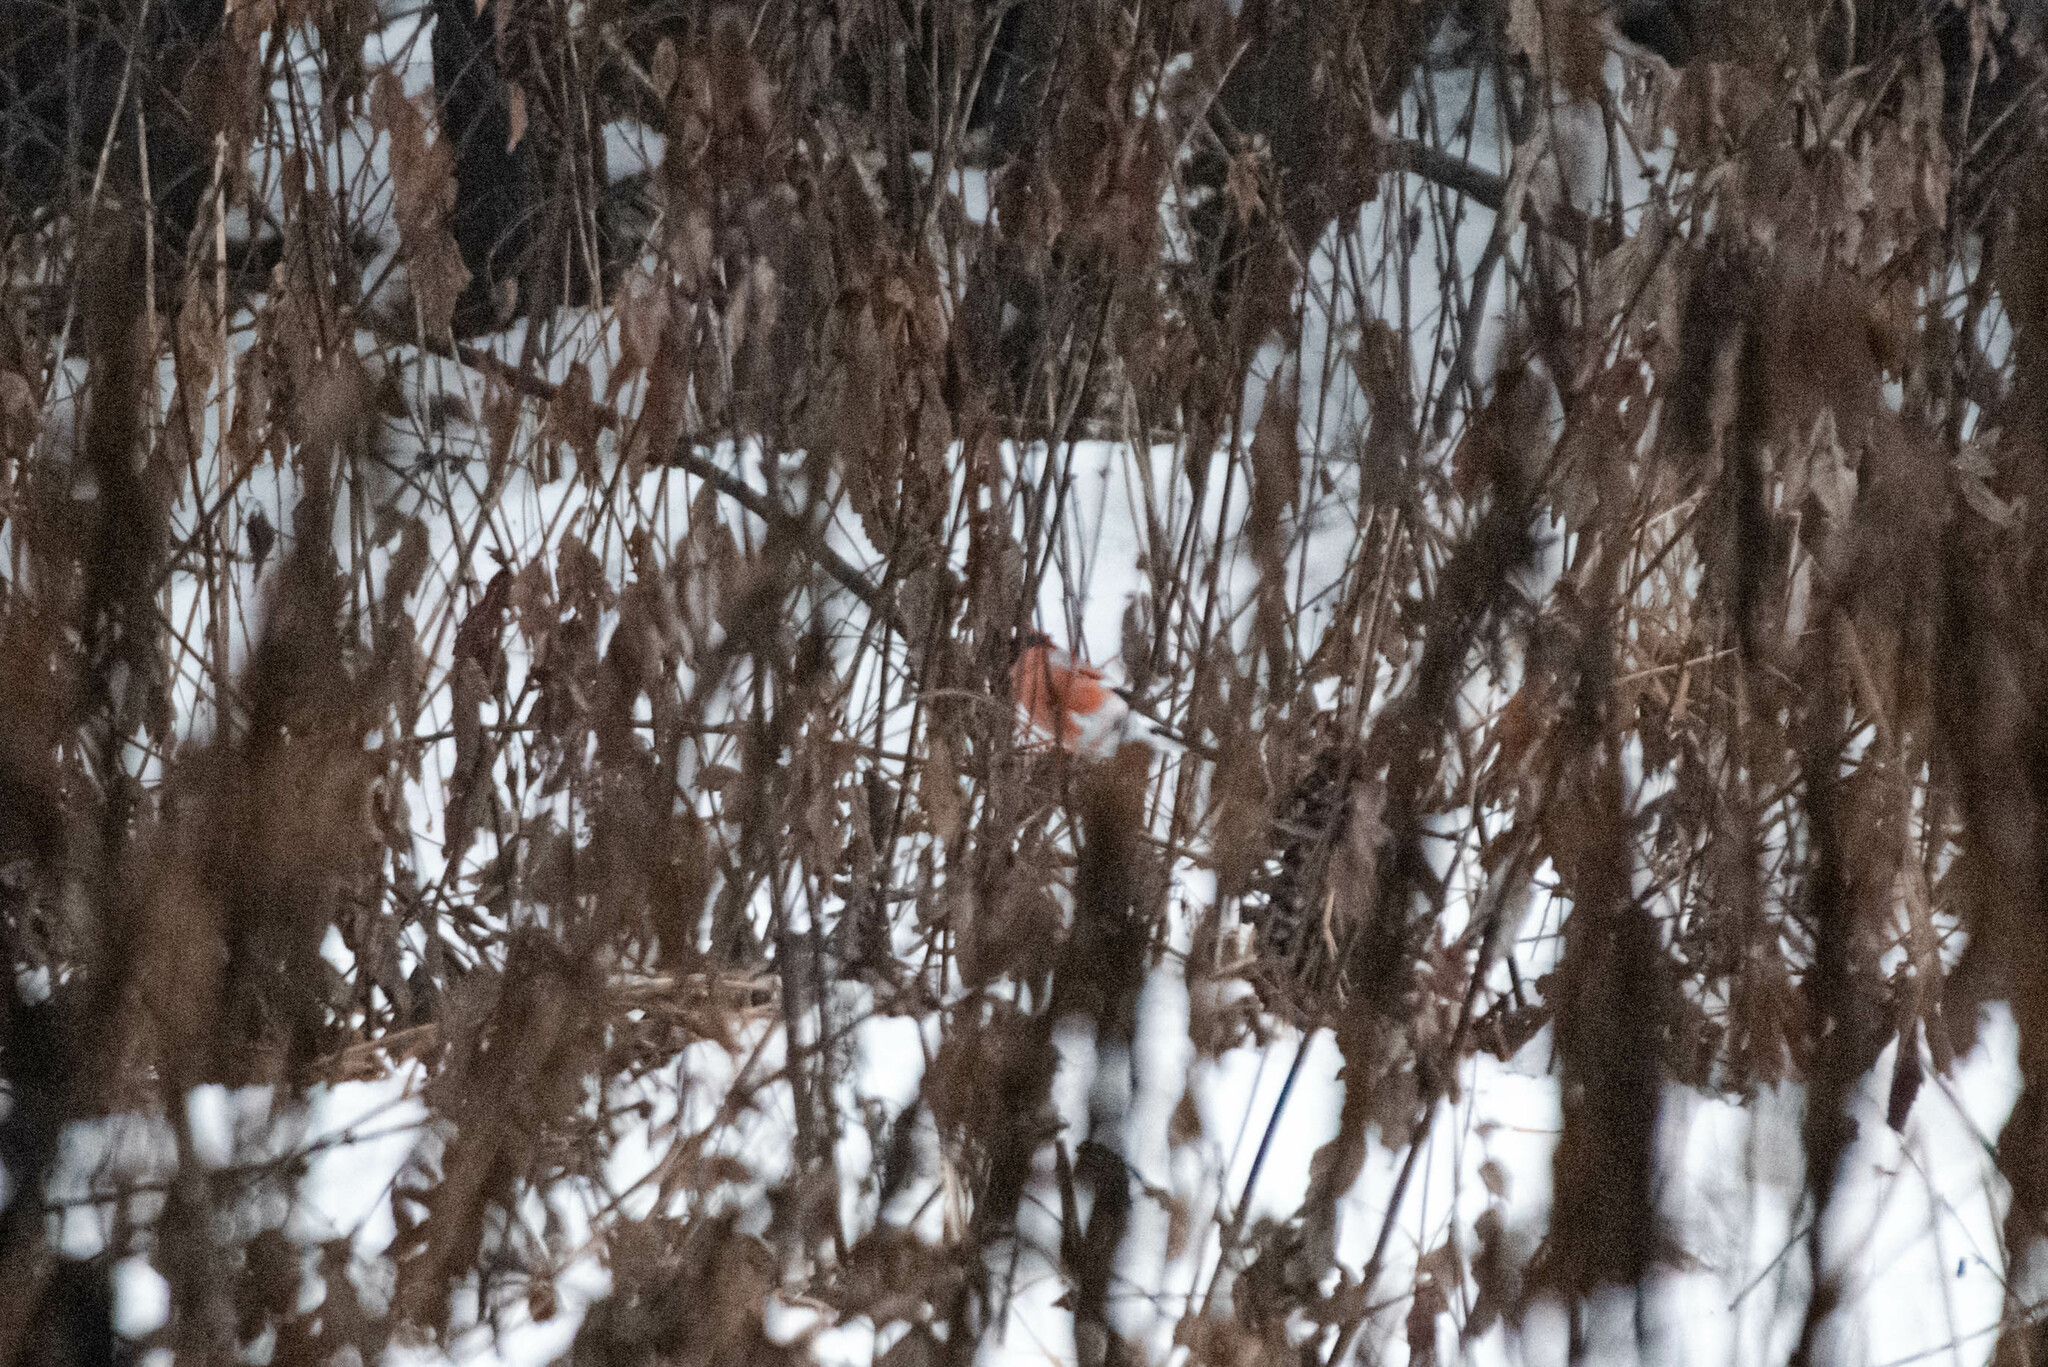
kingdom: Animalia
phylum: Chordata
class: Aves
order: Passeriformes
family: Fringillidae
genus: Pyrrhula
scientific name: Pyrrhula pyrrhula
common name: Eurasian bullfinch
